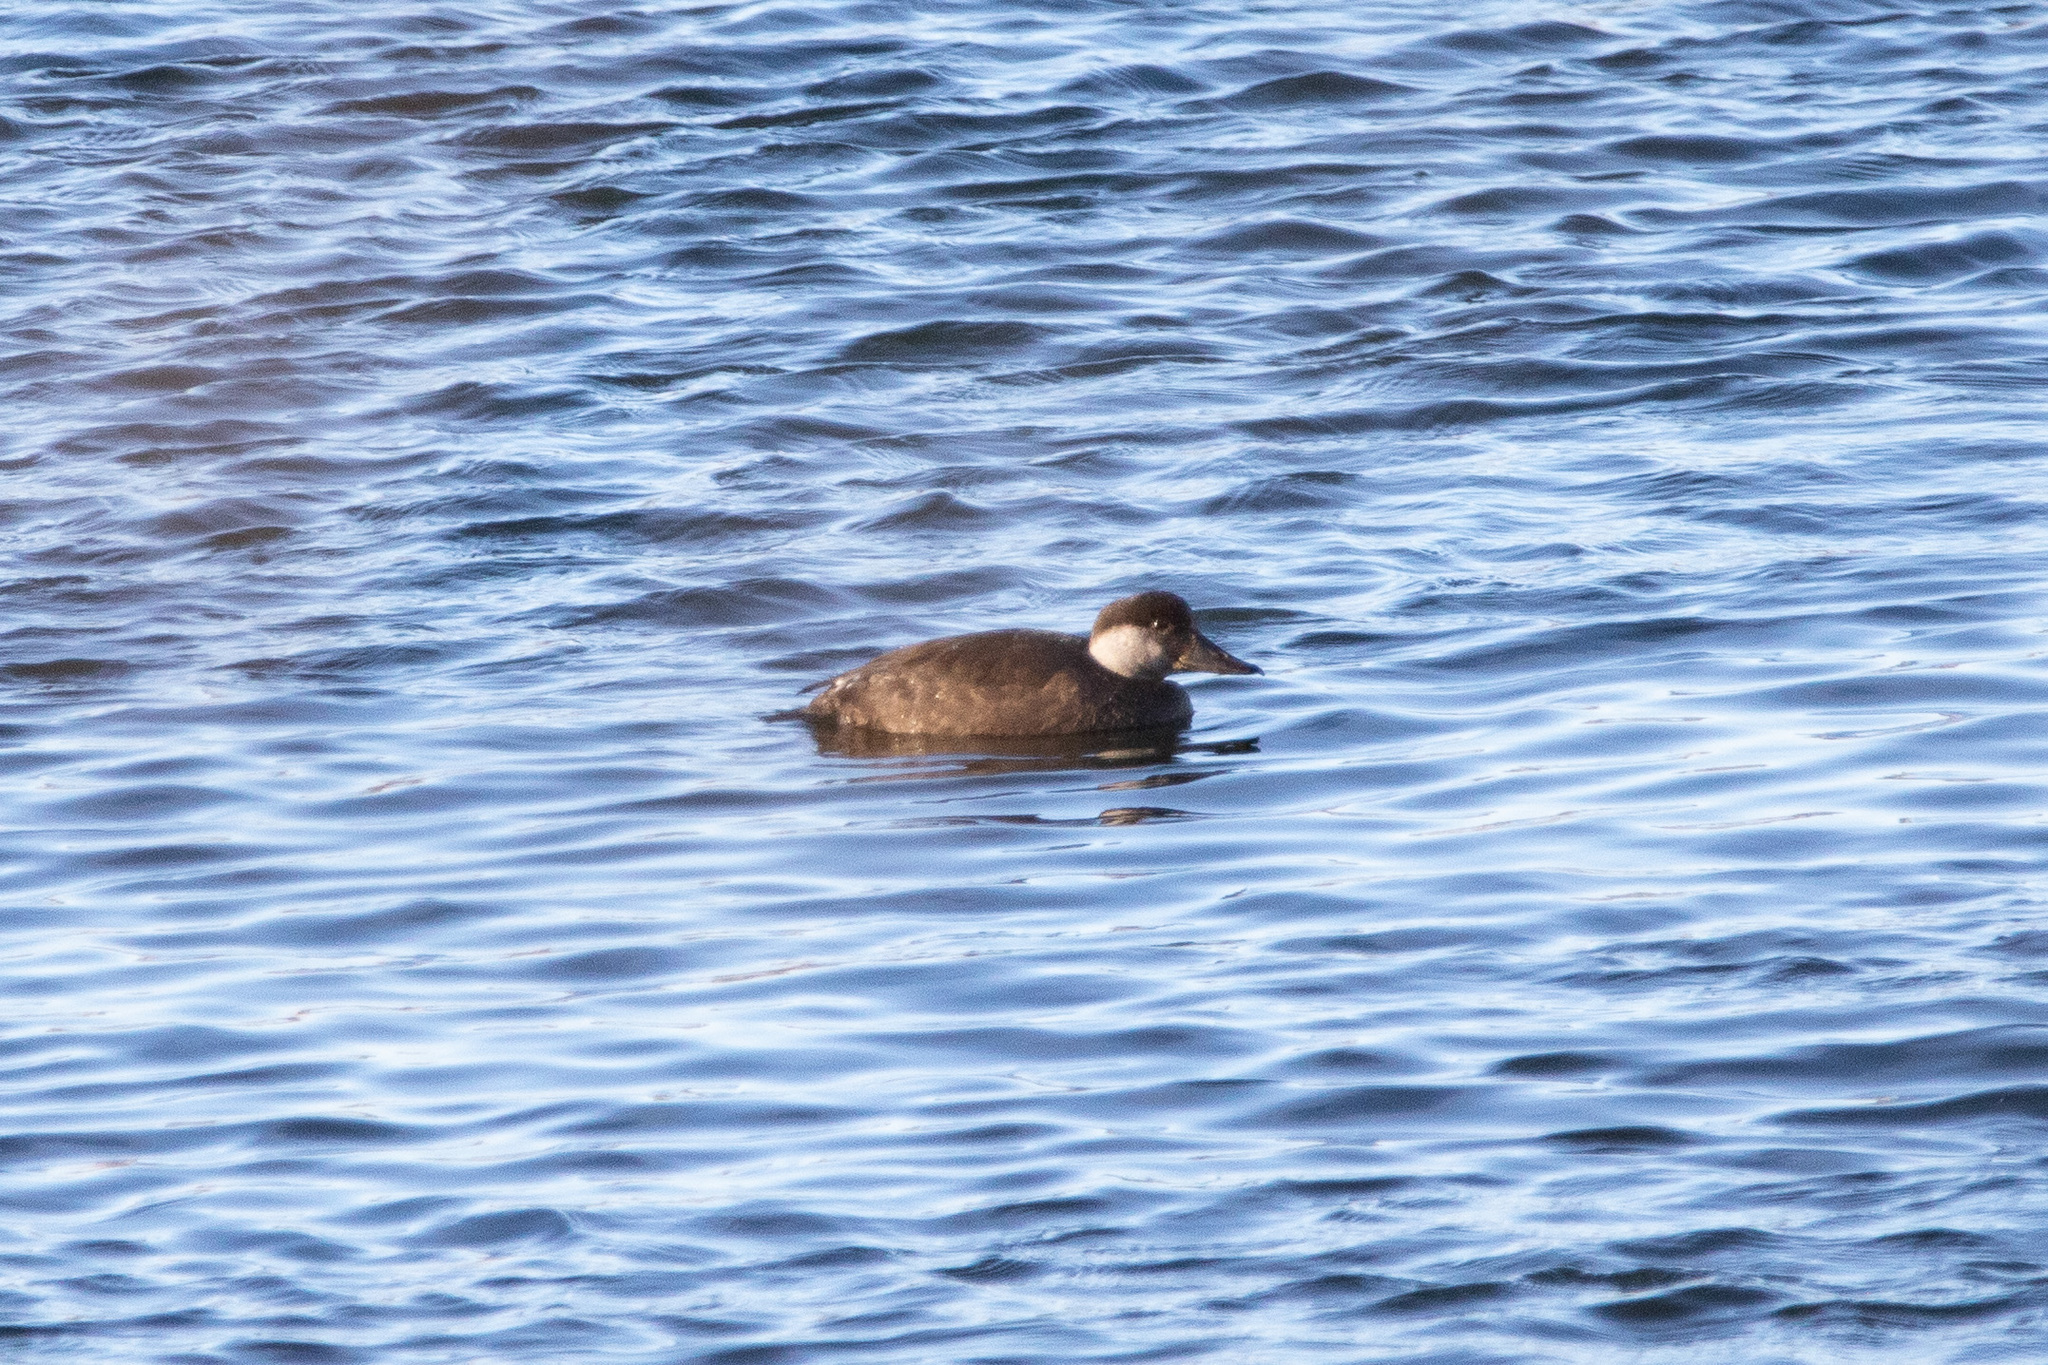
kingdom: Animalia
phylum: Chordata
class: Aves
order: Anseriformes
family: Anatidae
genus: Melanitta
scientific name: Melanitta nigra
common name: Common scoter
